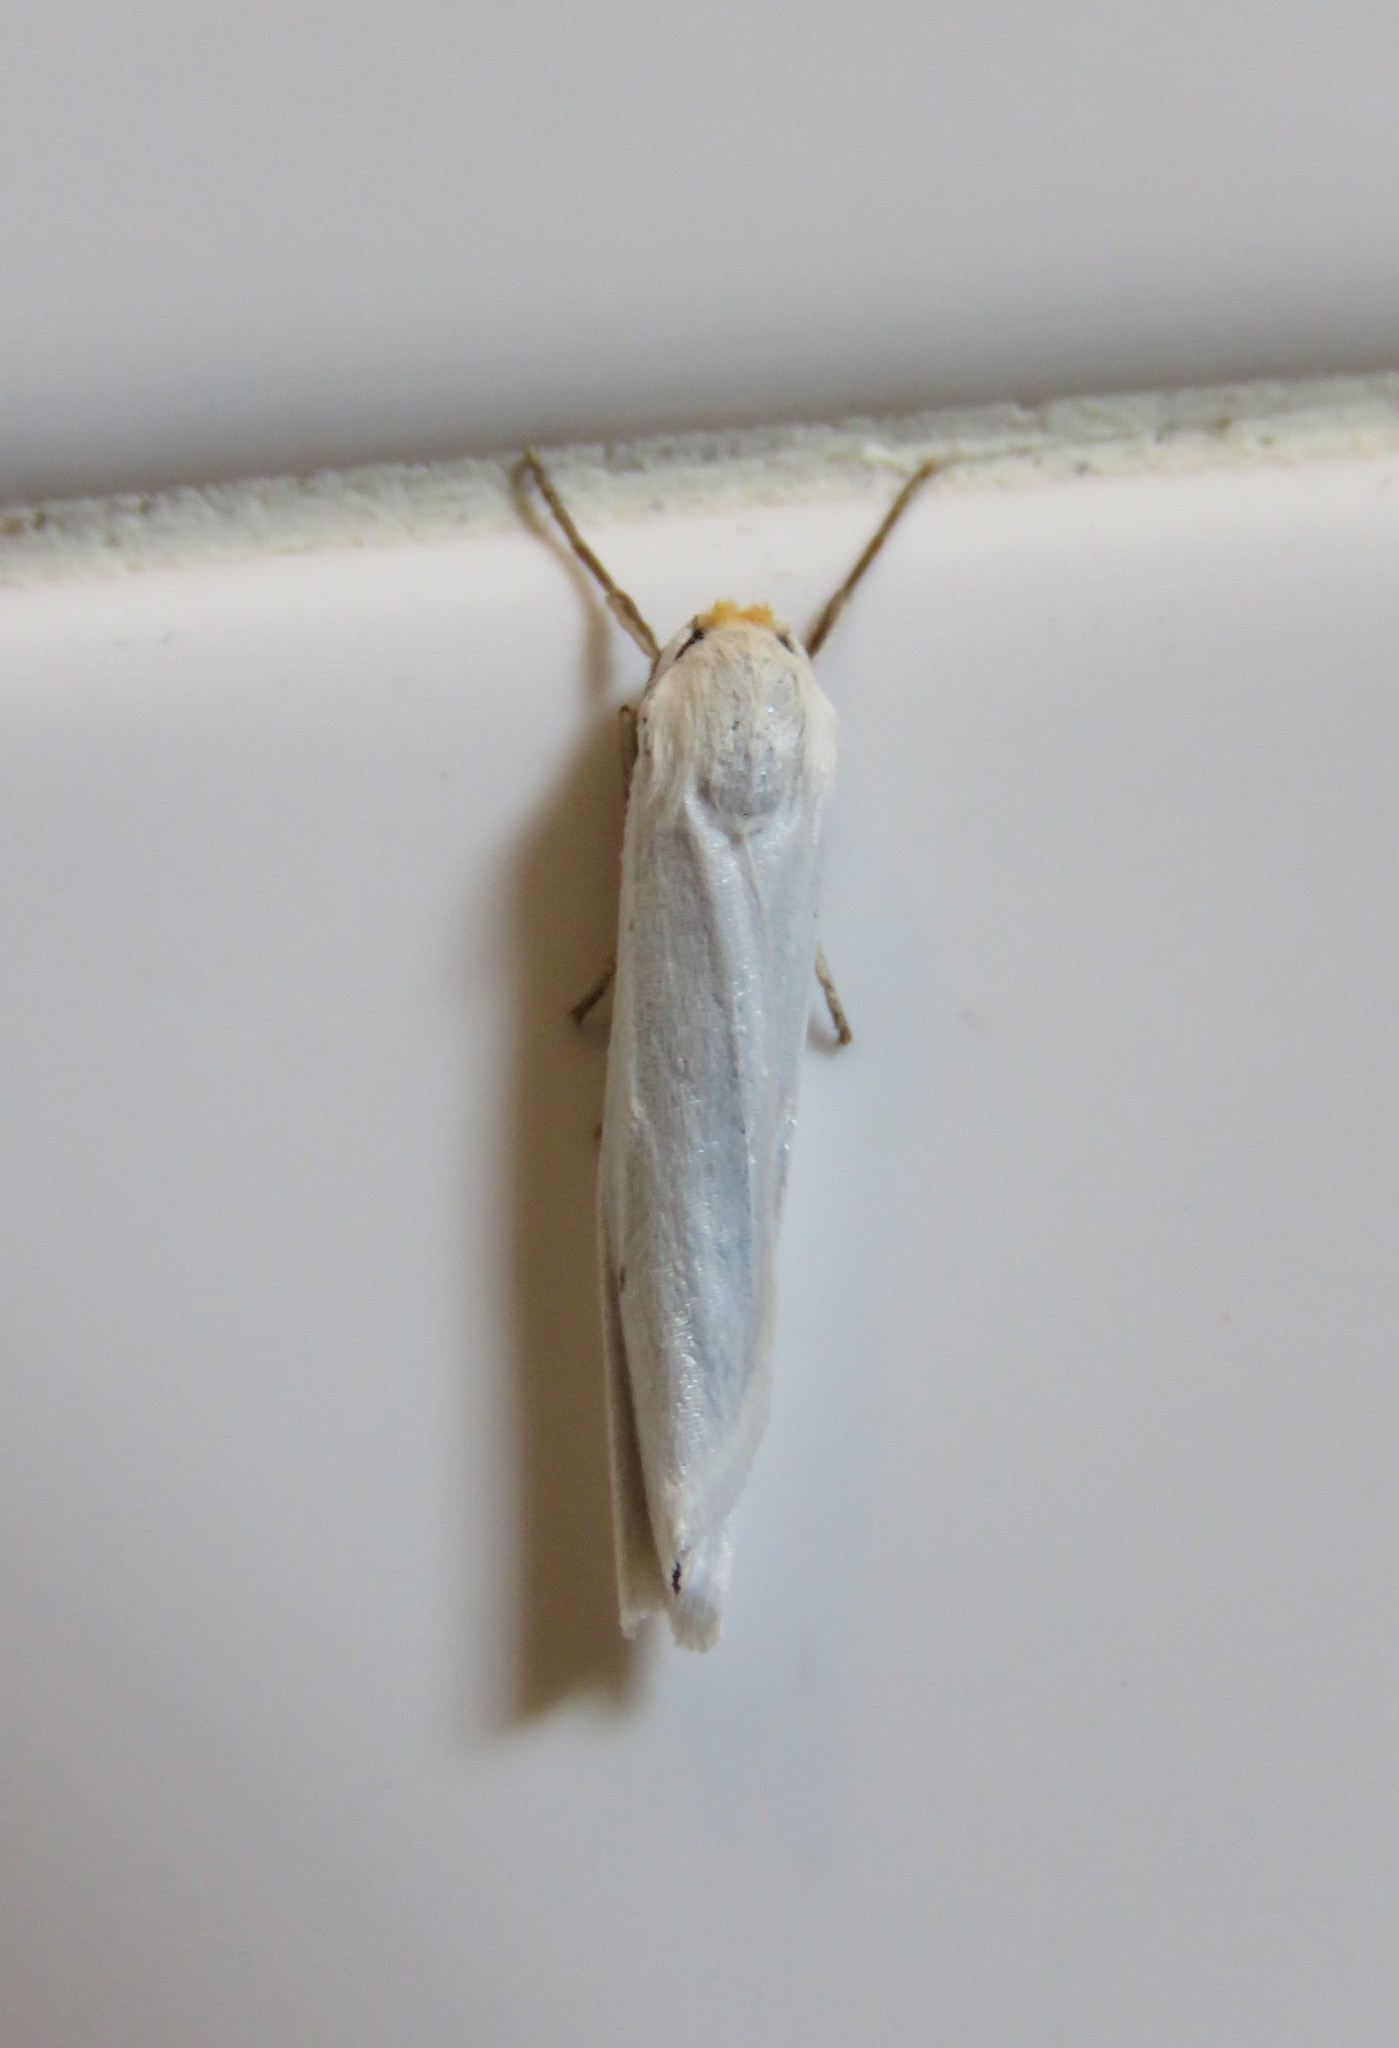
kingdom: Animalia
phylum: Arthropoda
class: Insecta
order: Lepidoptera
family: Erebidae
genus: Coscinia
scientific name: Coscinia cribraria
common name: Speckled footman
